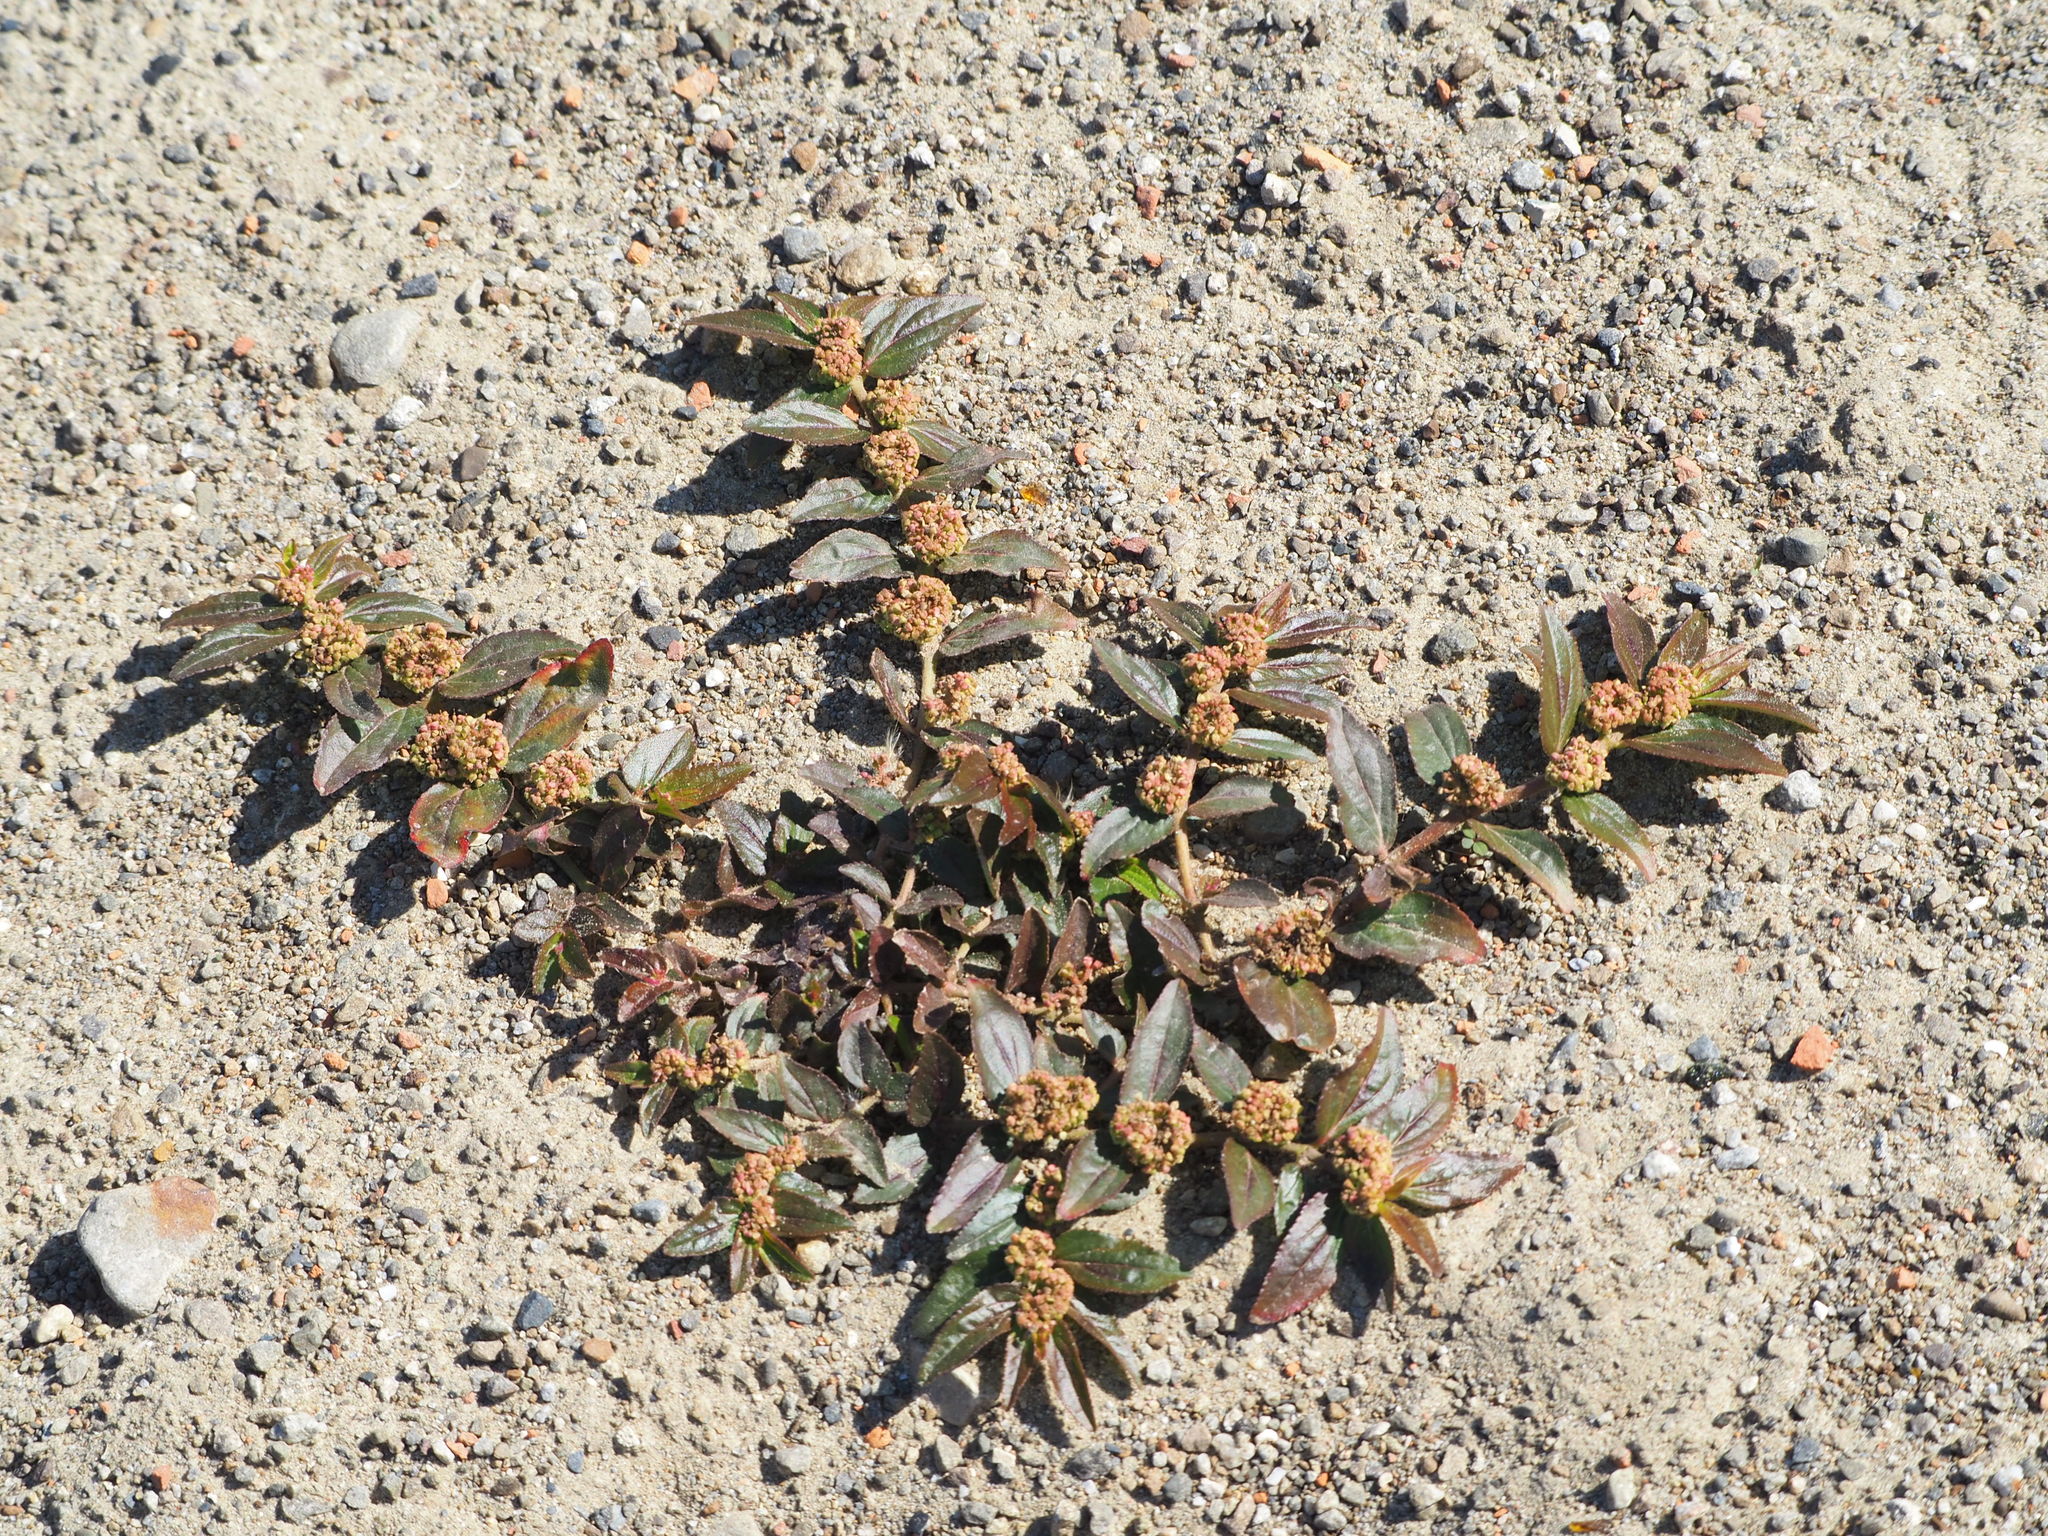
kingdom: Plantae
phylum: Tracheophyta
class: Magnoliopsida
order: Malpighiales
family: Euphorbiaceae
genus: Euphorbia
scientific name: Euphorbia hirta
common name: Pillpod sandmat
